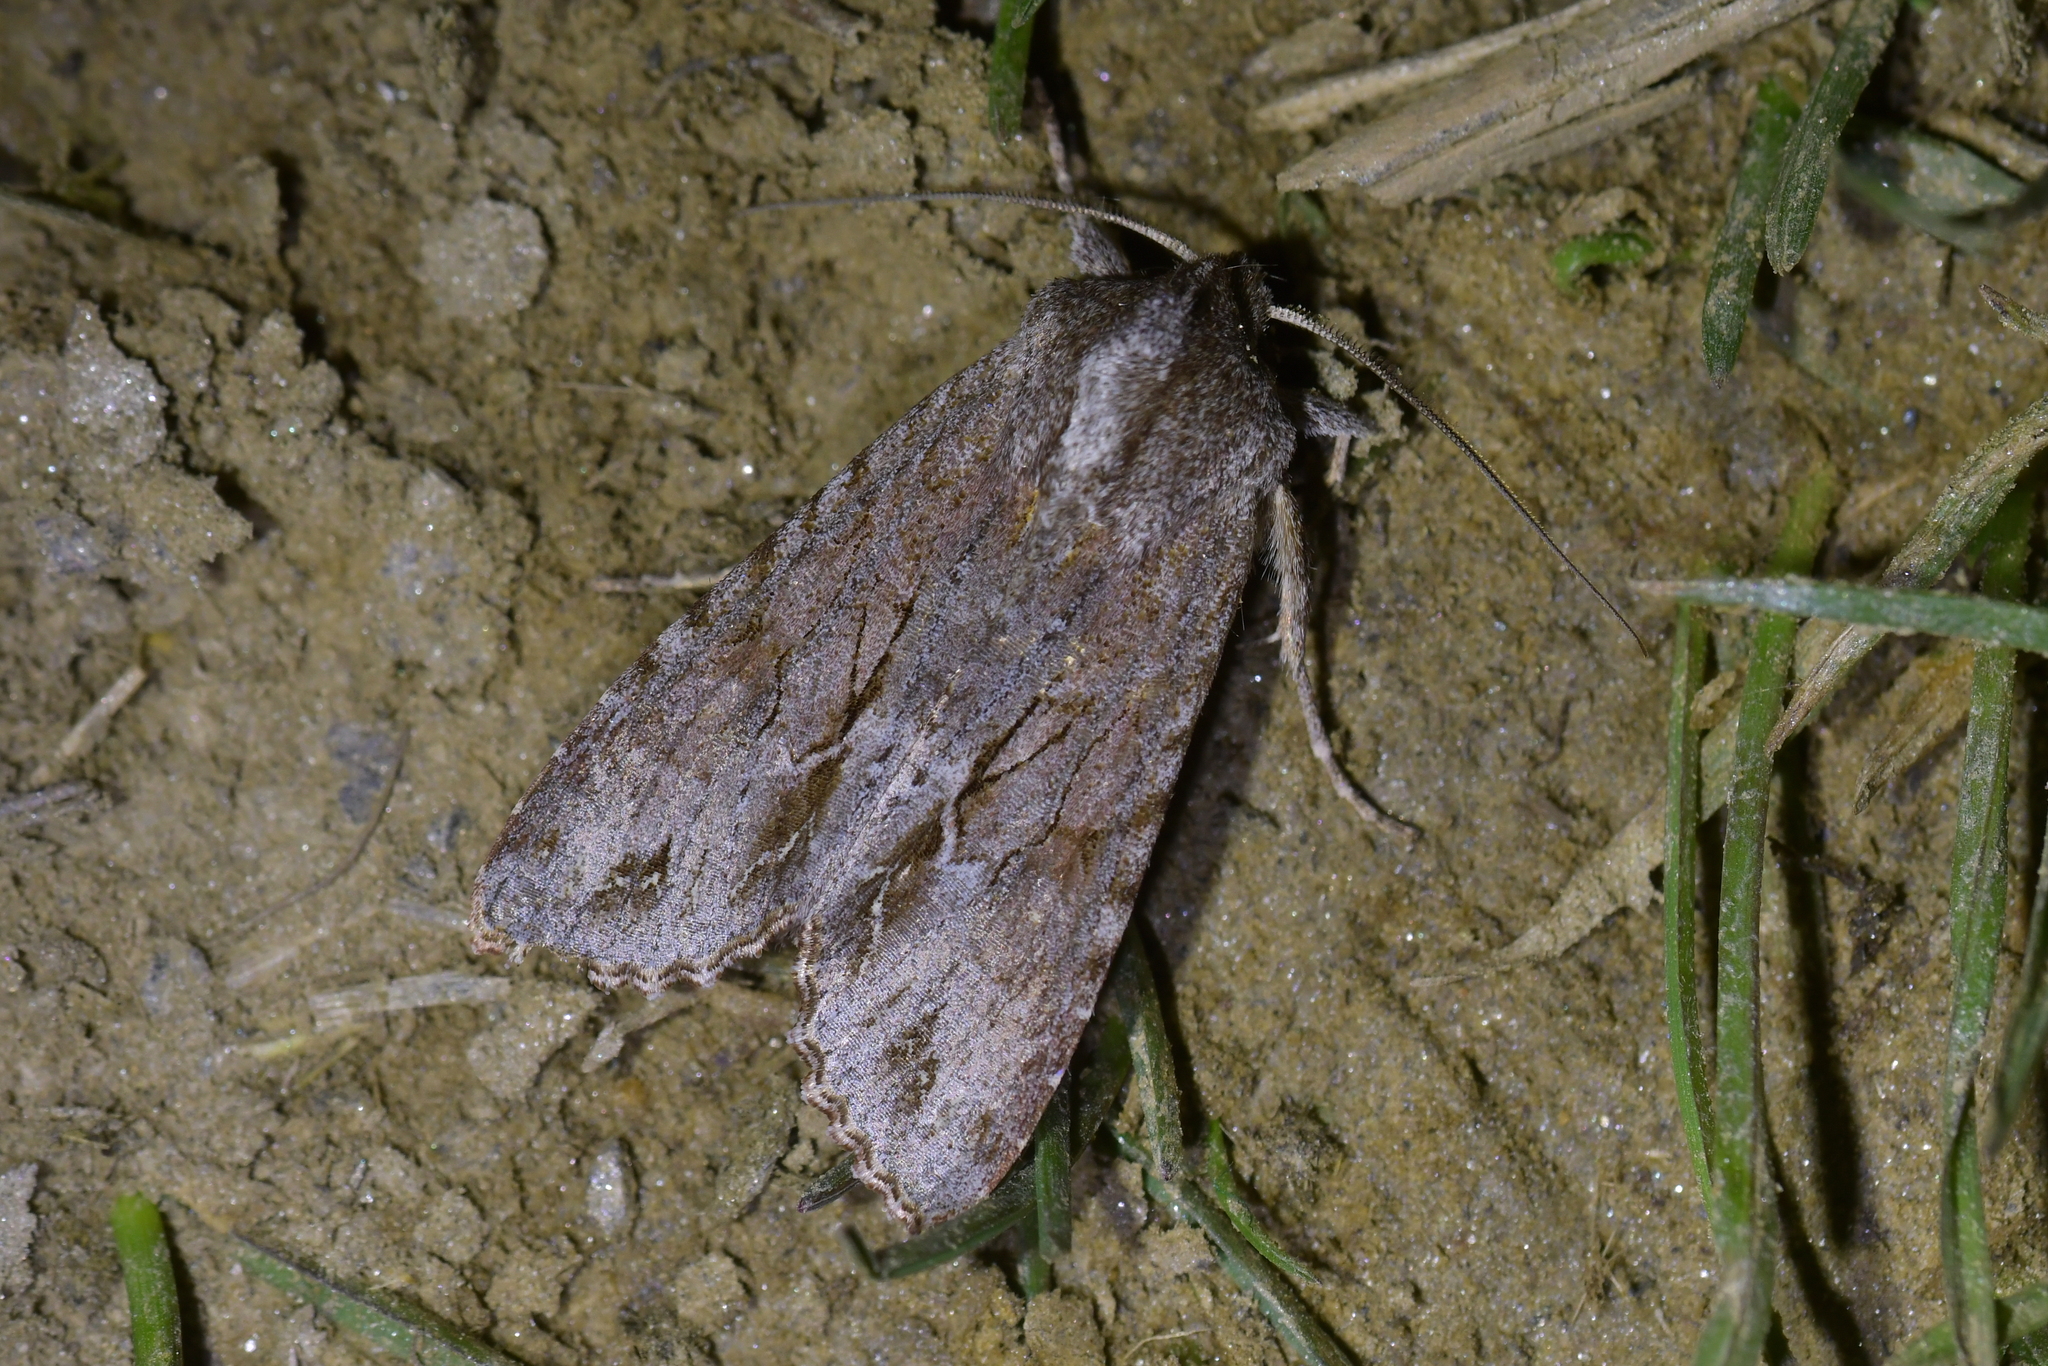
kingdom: Animalia
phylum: Arthropoda
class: Insecta
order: Lepidoptera
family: Noctuidae
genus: Ichneutica
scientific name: Ichneutica
